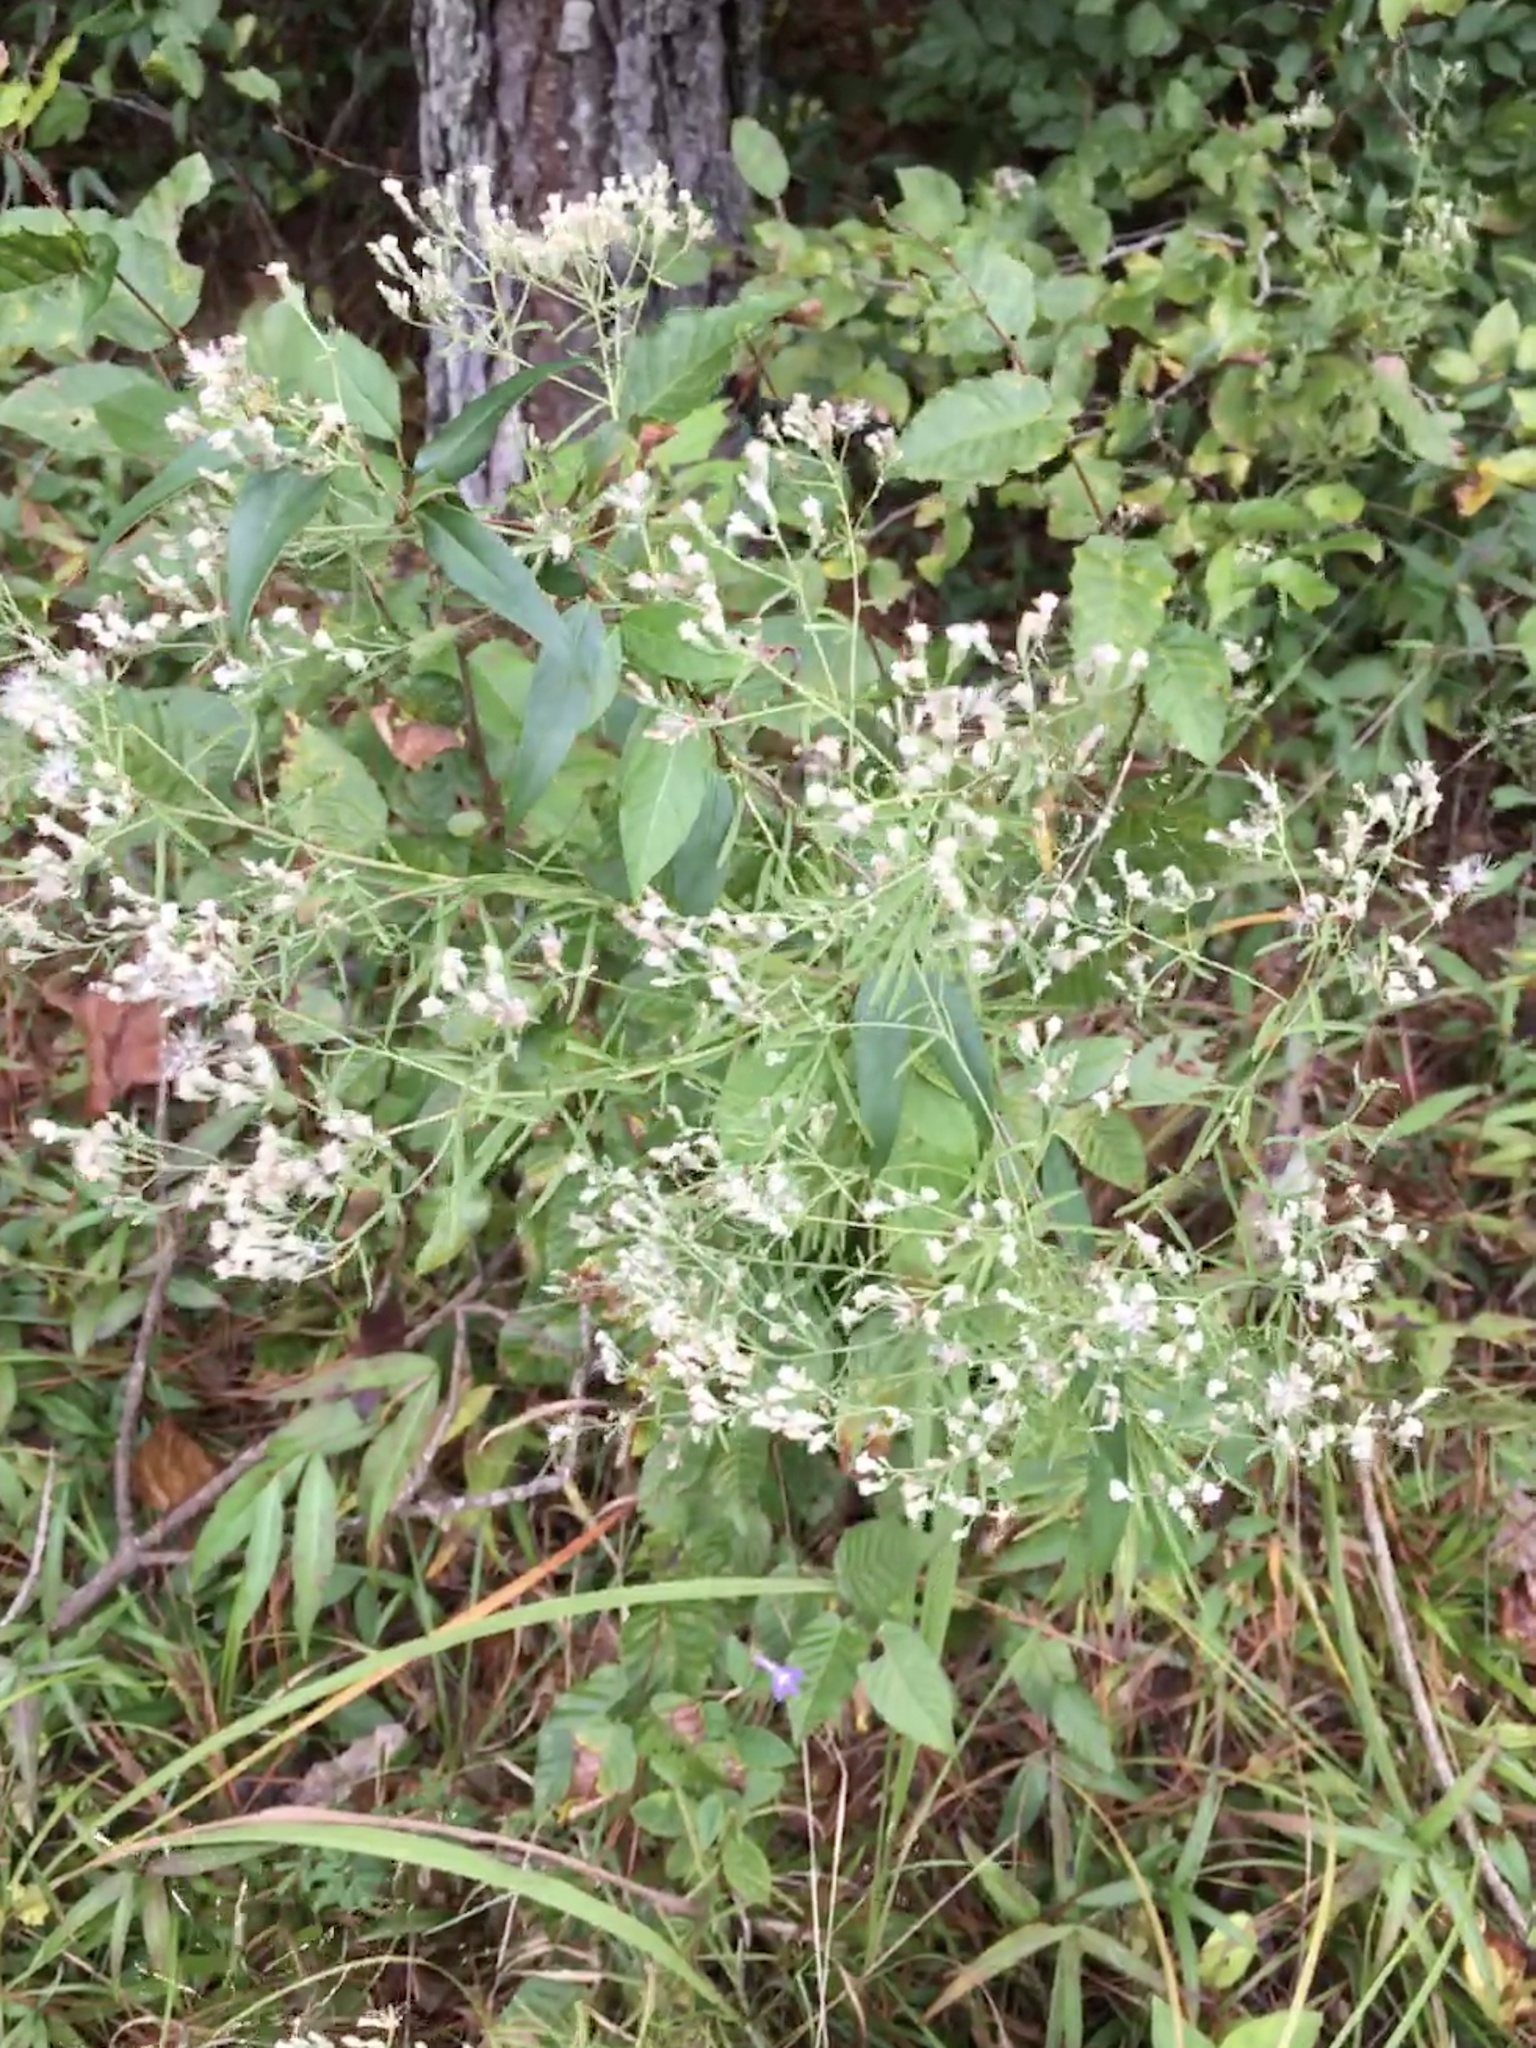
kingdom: Plantae
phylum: Tracheophyta
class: Magnoliopsida
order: Asterales
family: Asteraceae
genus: Eupatorium
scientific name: Eupatorium hyssopifolium
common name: Hyssop-leaf thoroughwort
